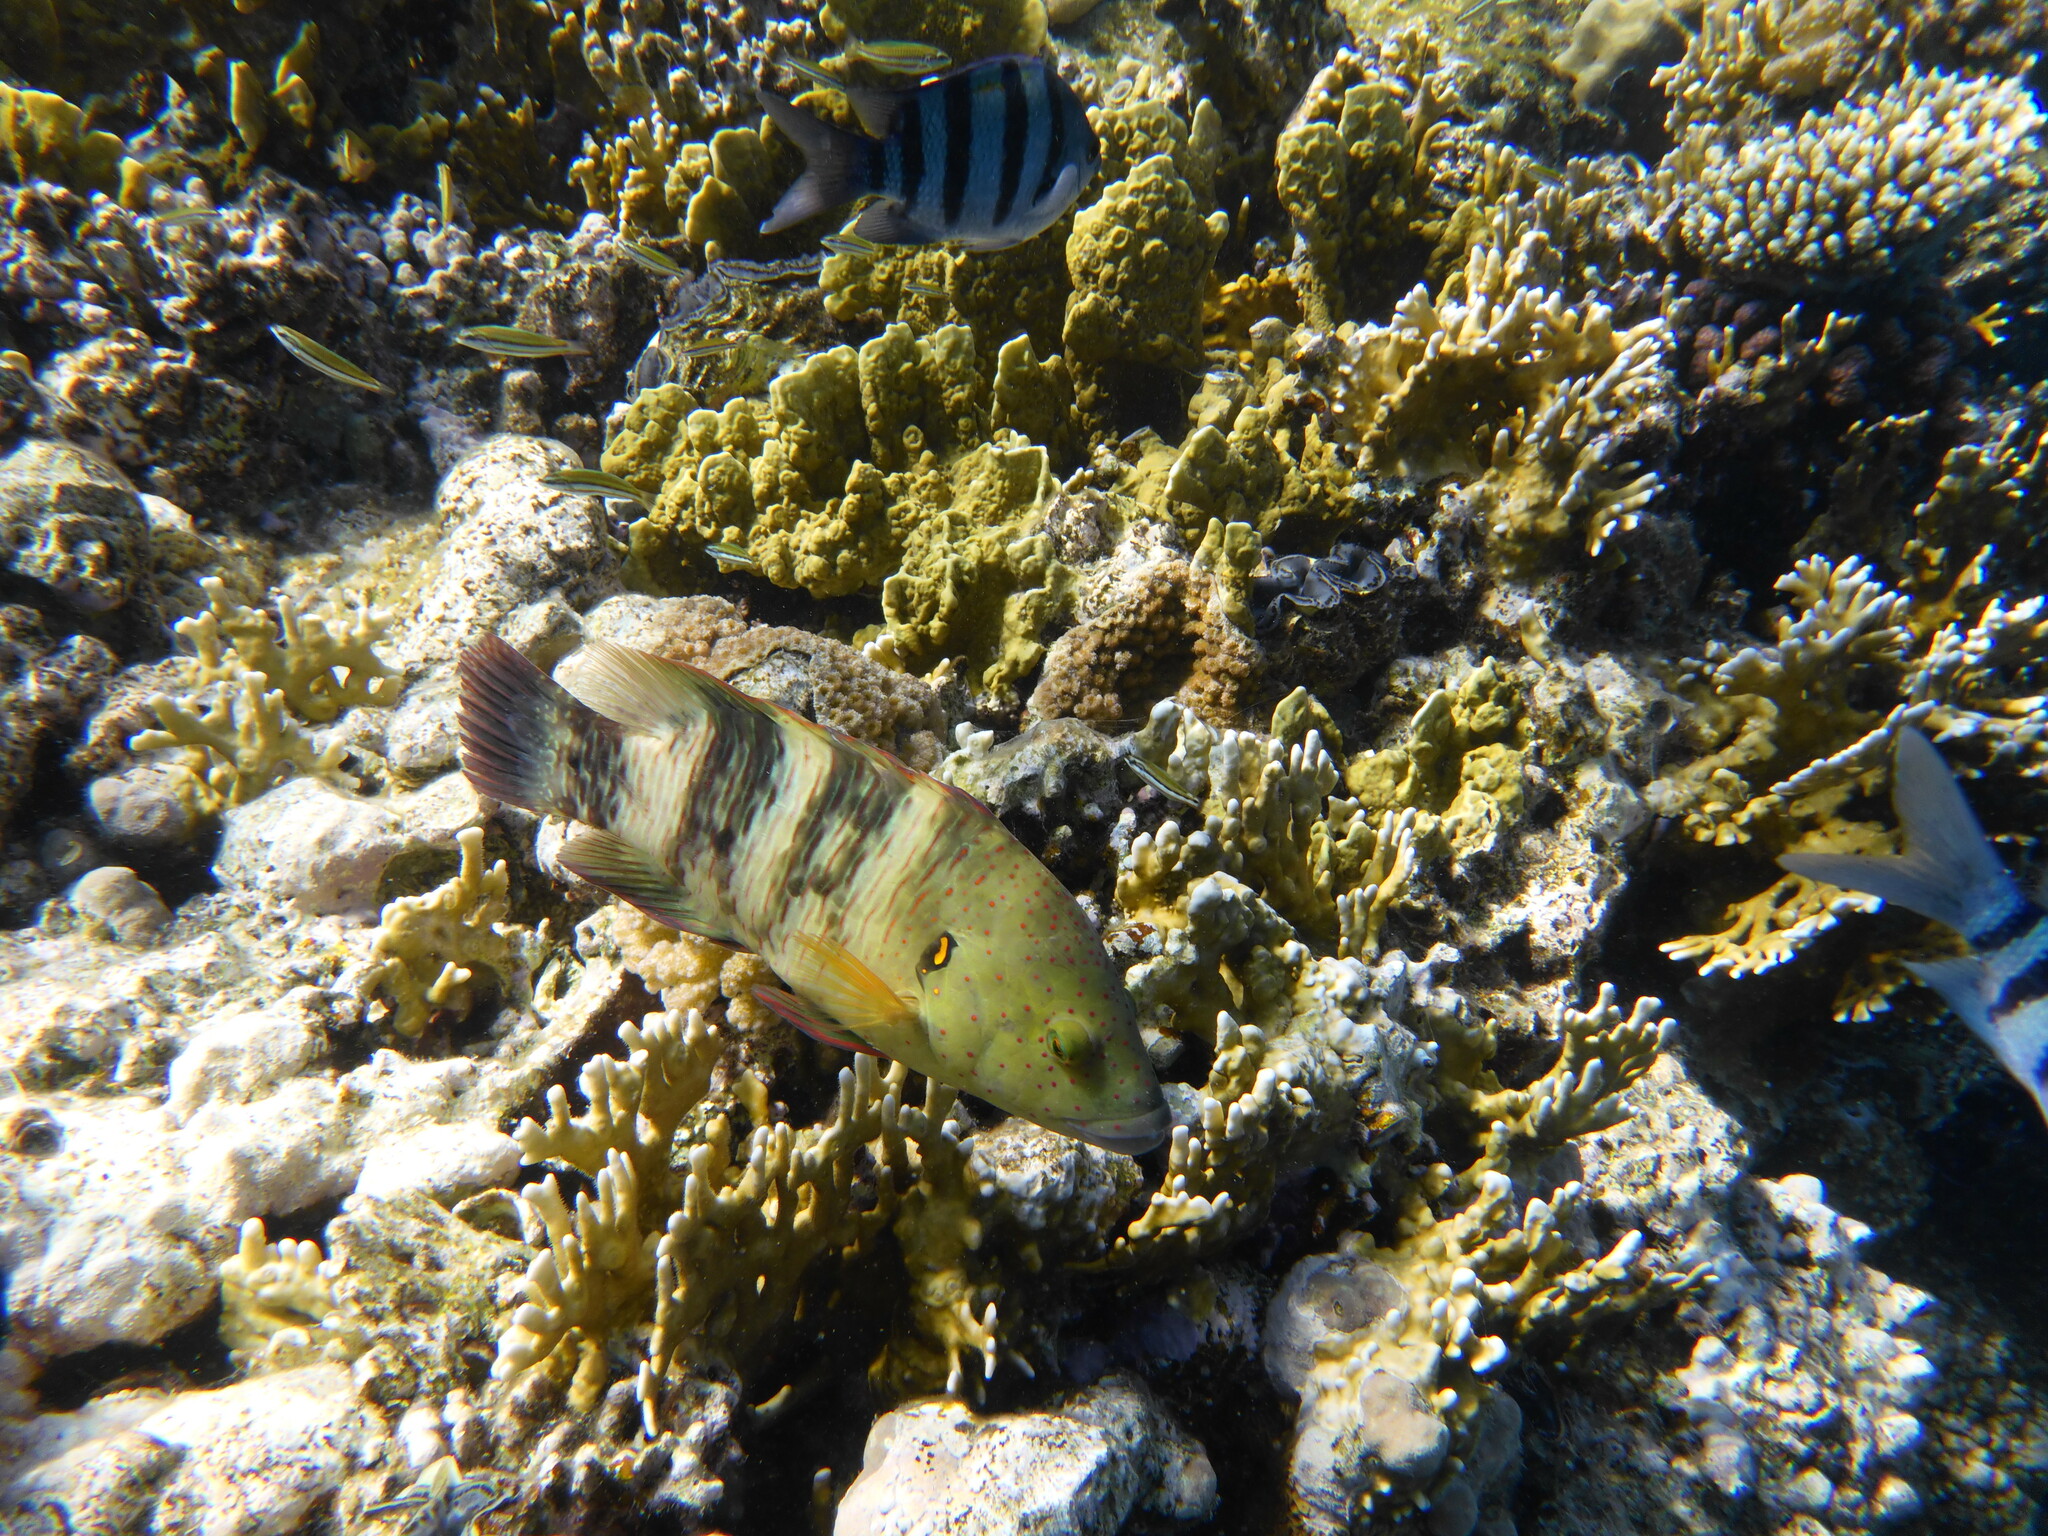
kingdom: Animalia
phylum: Chordata
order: Perciformes
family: Labridae
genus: Cheilinus
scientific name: Cheilinus lunulatus
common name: Broomtail wrasse
